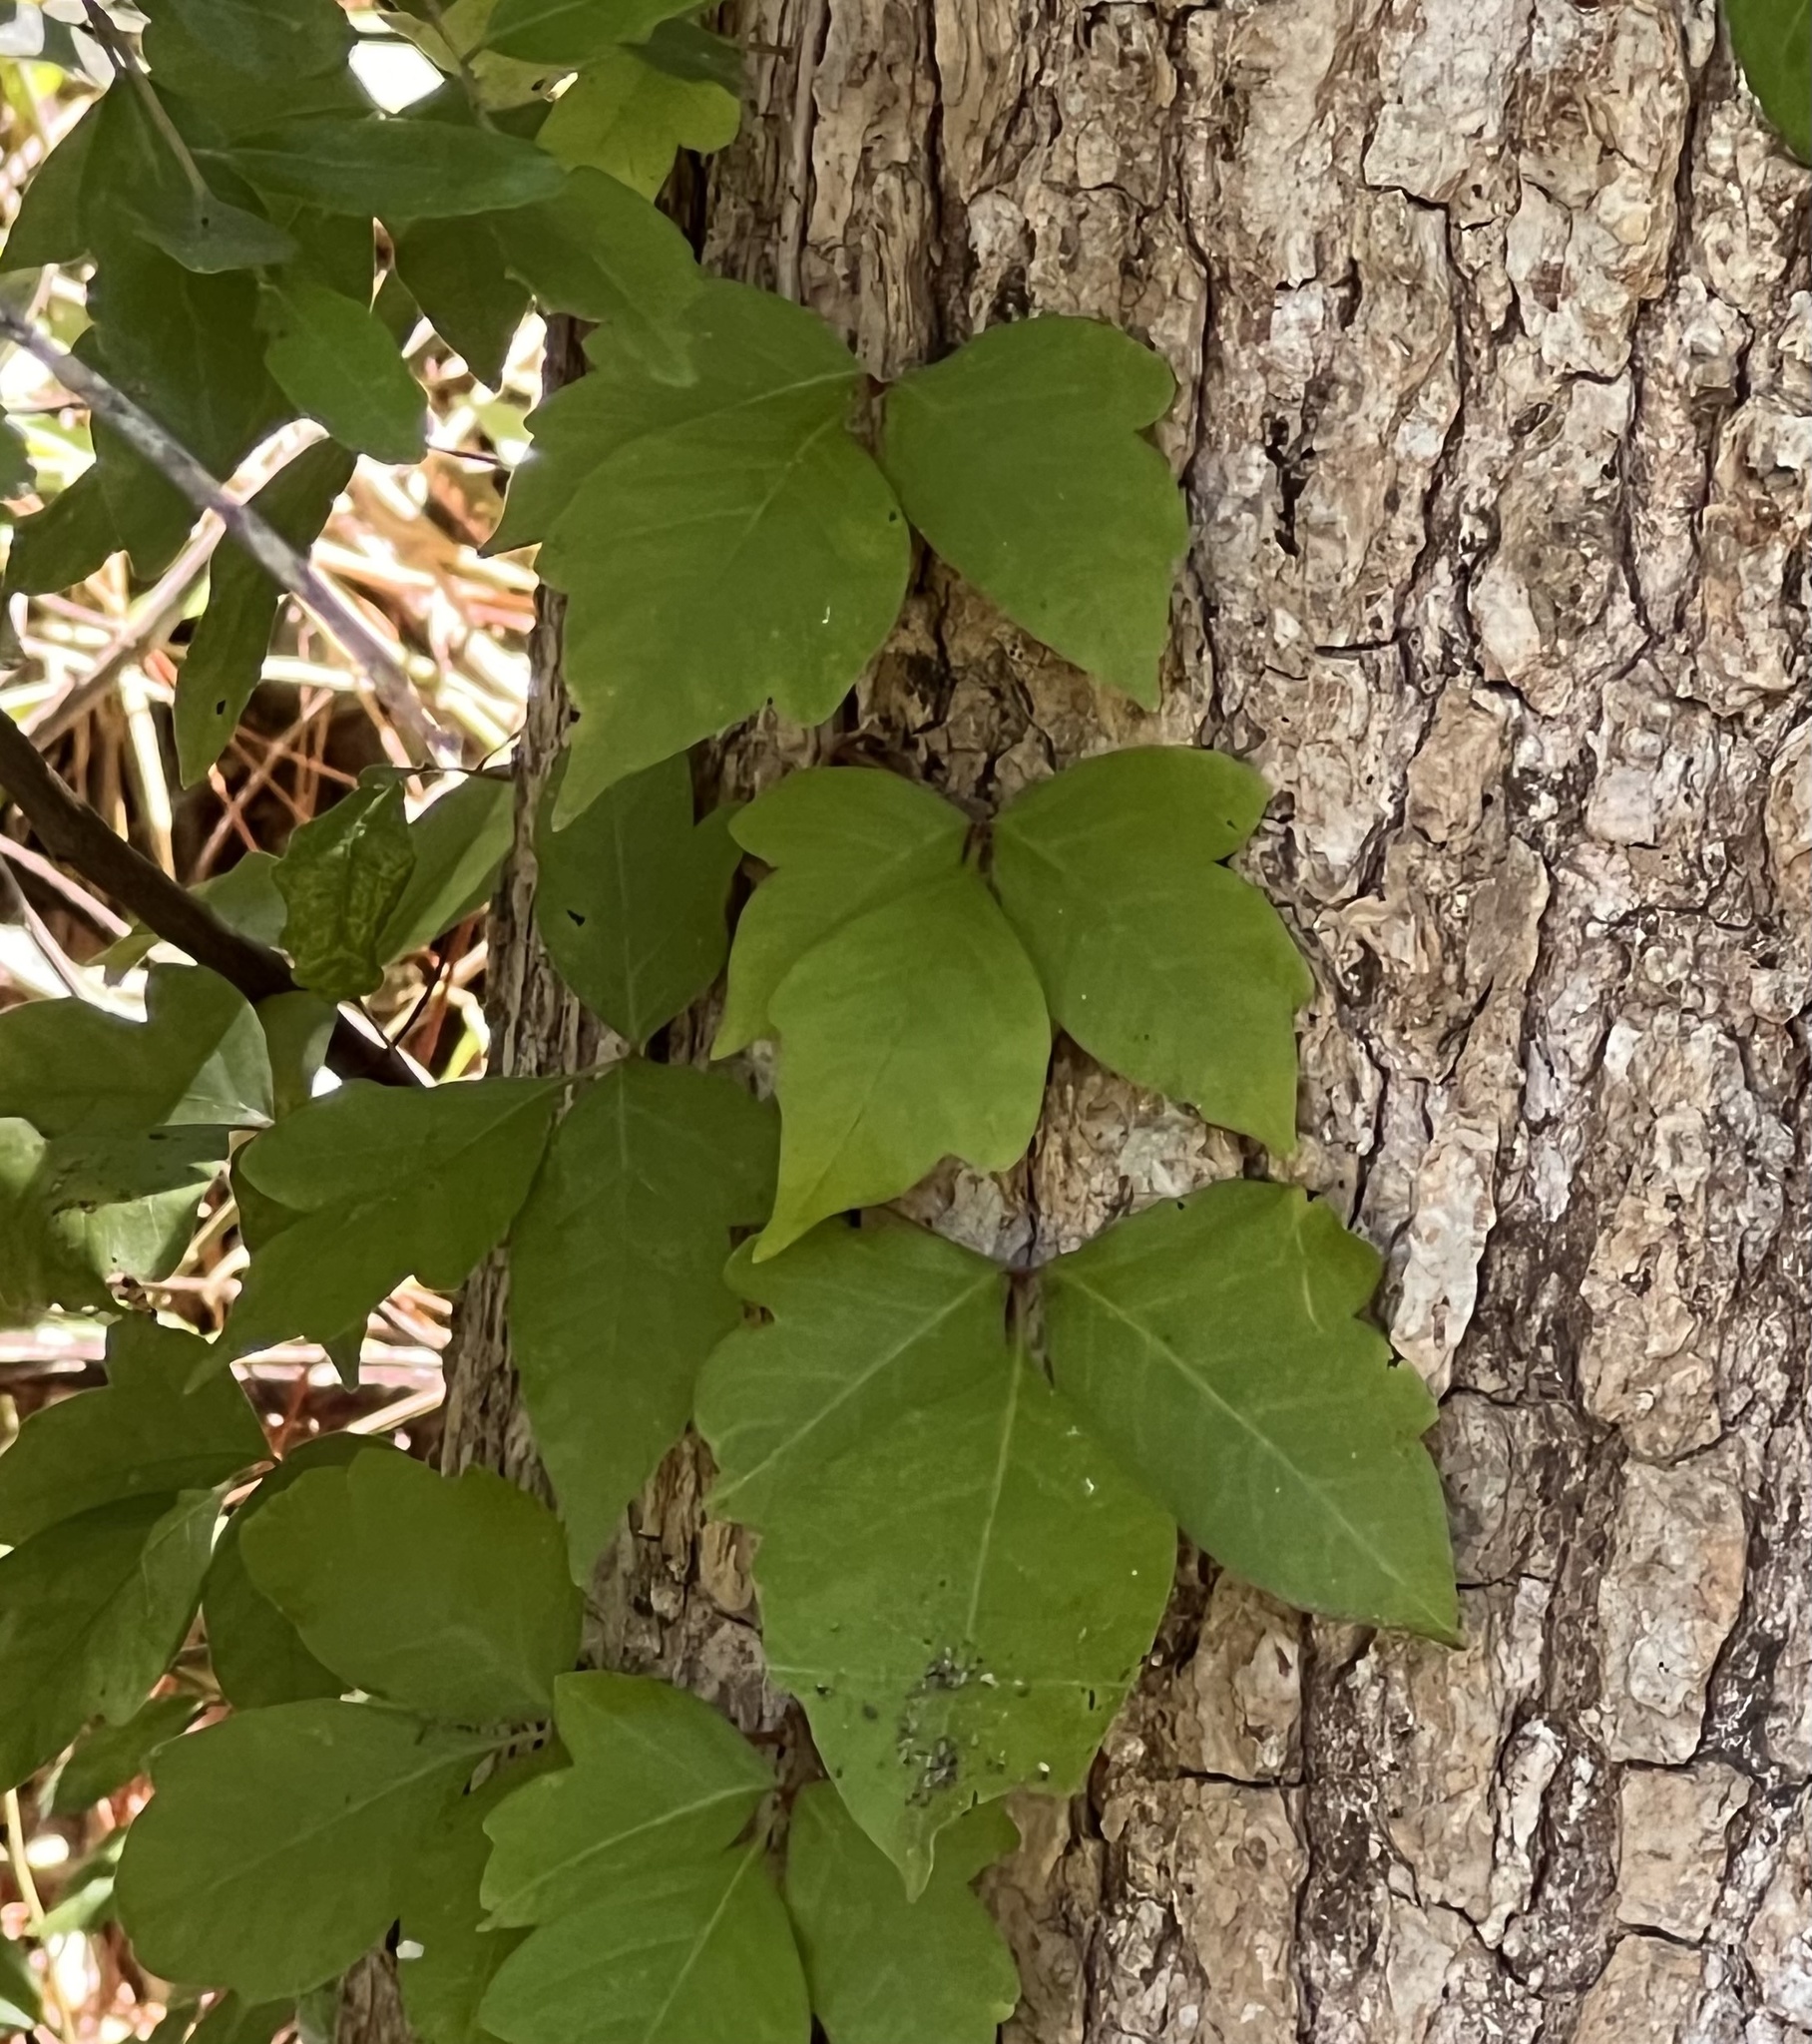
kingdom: Plantae
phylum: Tracheophyta
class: Magnoliopsida
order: Sapindales
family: Anacardiaceae
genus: Toxicodendron
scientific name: Toxicodendron radicans
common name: Poison ivy
